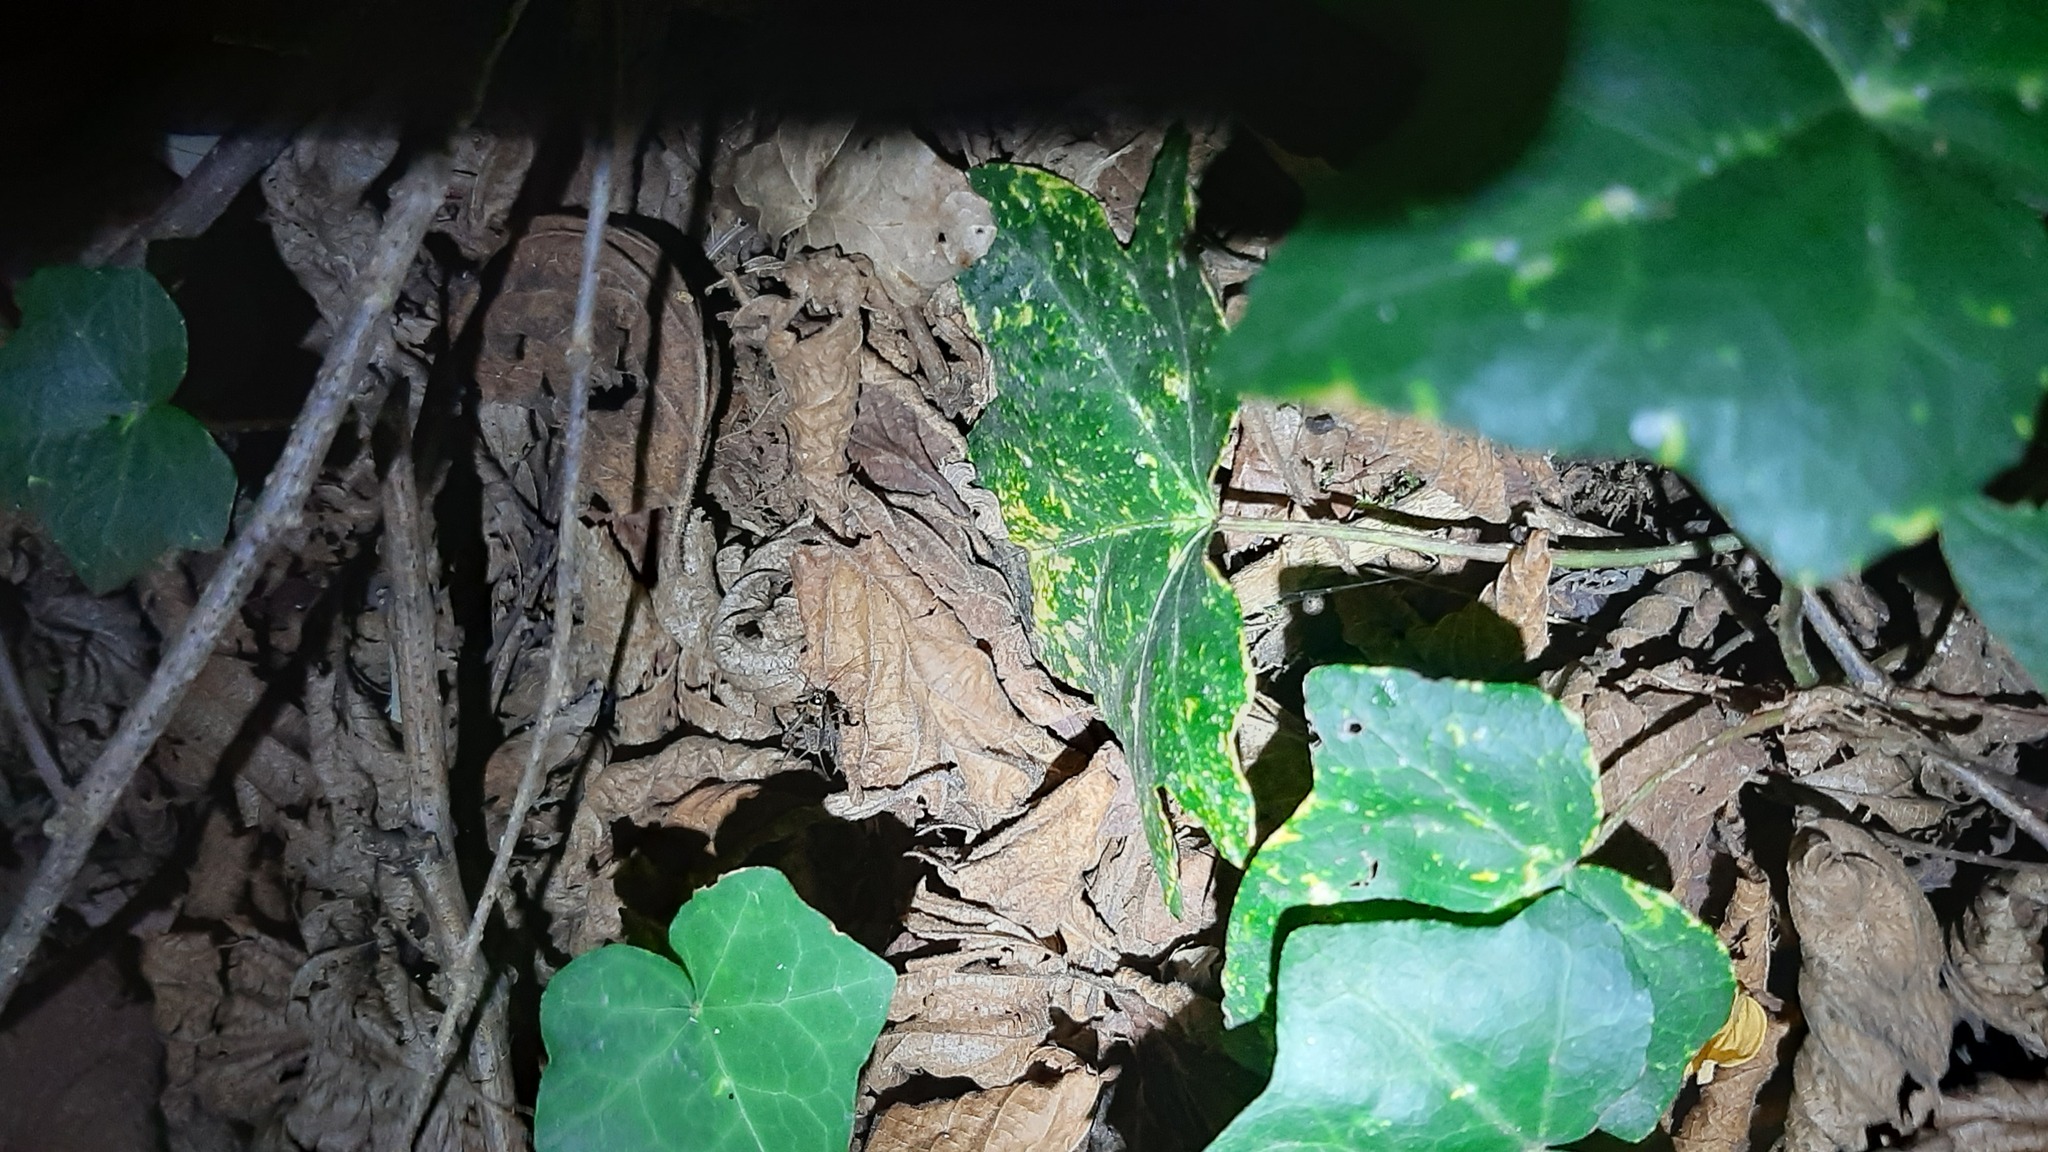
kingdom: Animalia
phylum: Arthropoda
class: Insecta
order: Orthoptera
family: Trigonidiidae
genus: Nemobius
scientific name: Nemobius sylvestris
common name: Wood-cricket
